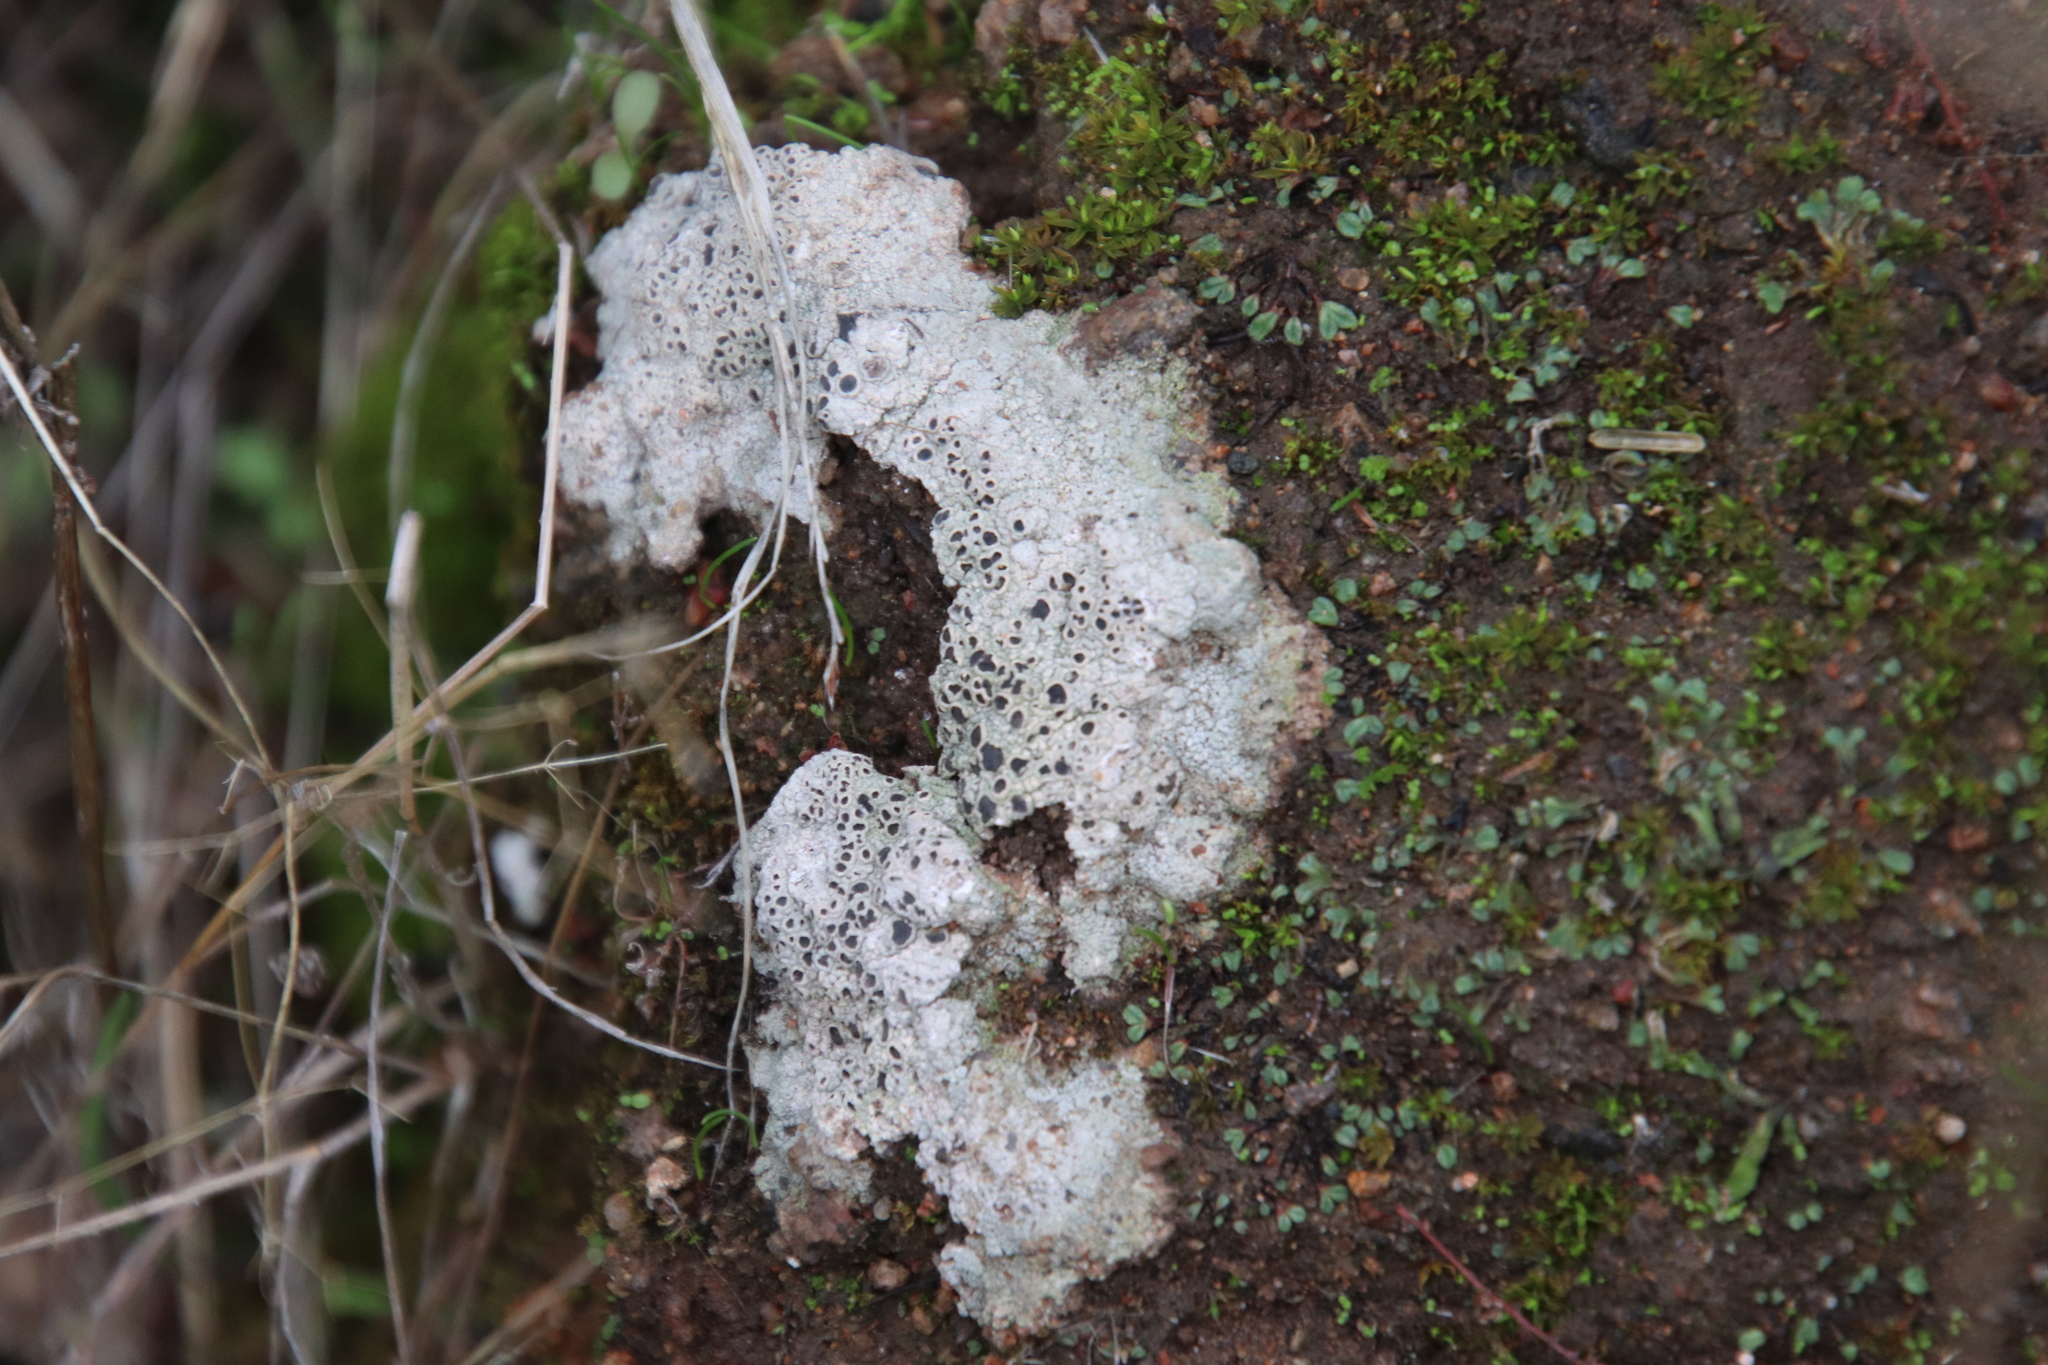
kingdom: Fungi
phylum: Ascomycota
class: Lecanoromycetes
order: Ostropales
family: Graphidaceae
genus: Diploschistes
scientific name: Diploschistes muscorum
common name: Cowpie lichen
